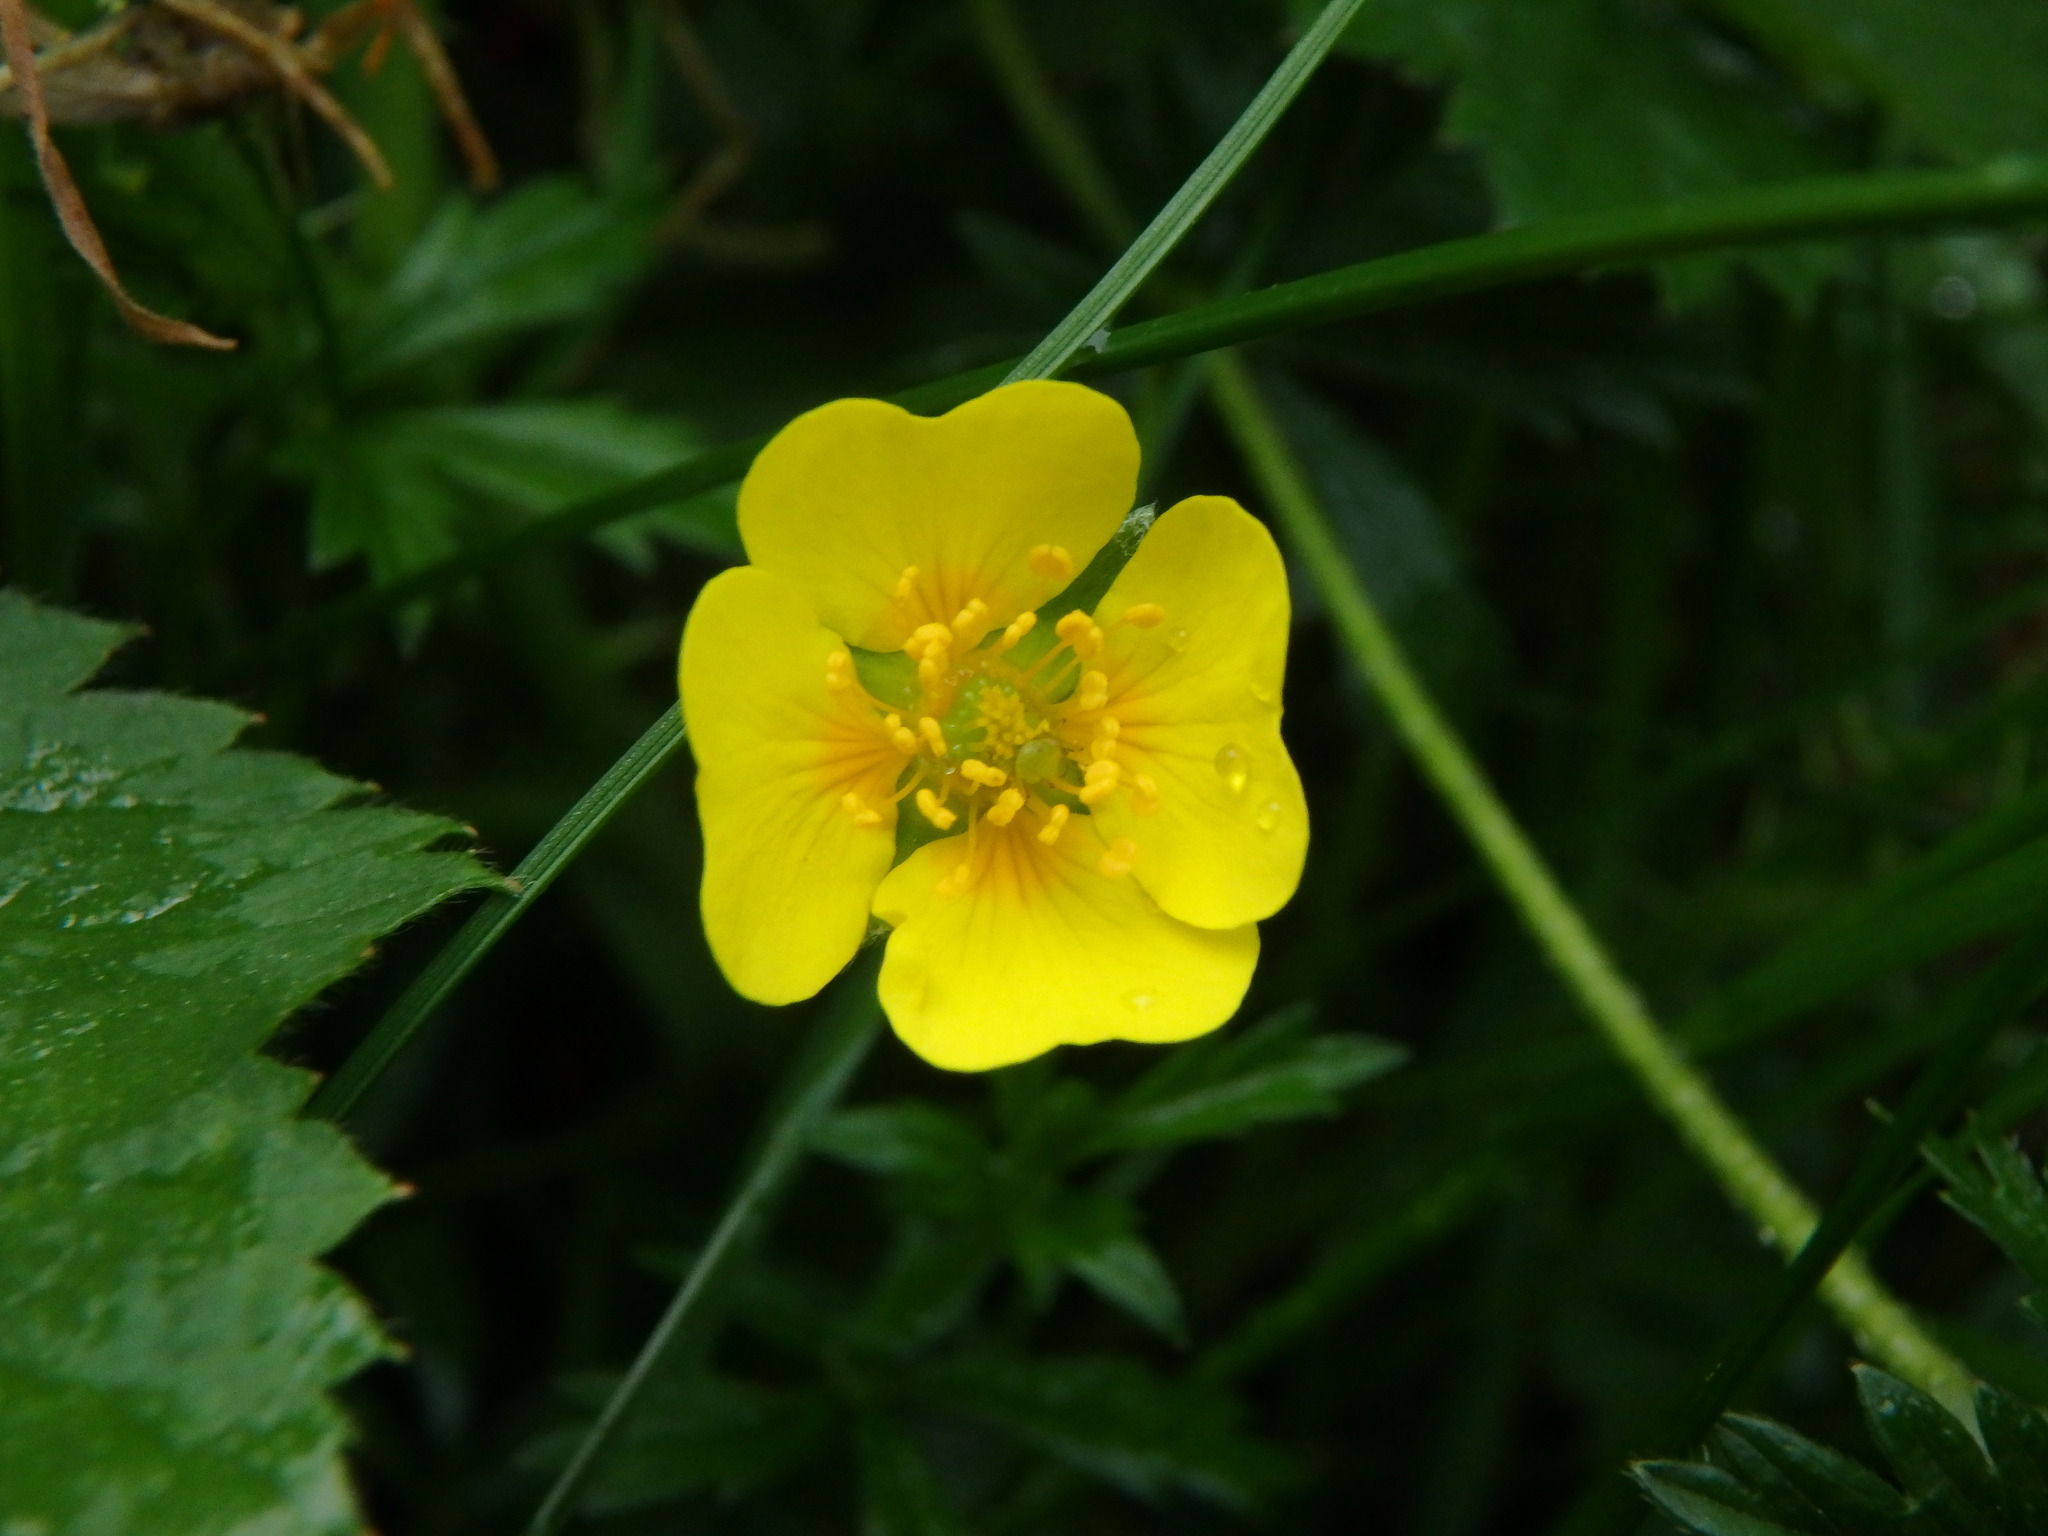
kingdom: Plantae
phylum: Tracheophyta
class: Magnoliopsida
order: Rosales
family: Rosaceae
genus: Potentilla
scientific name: Potentilla erecta
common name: Tormentil
